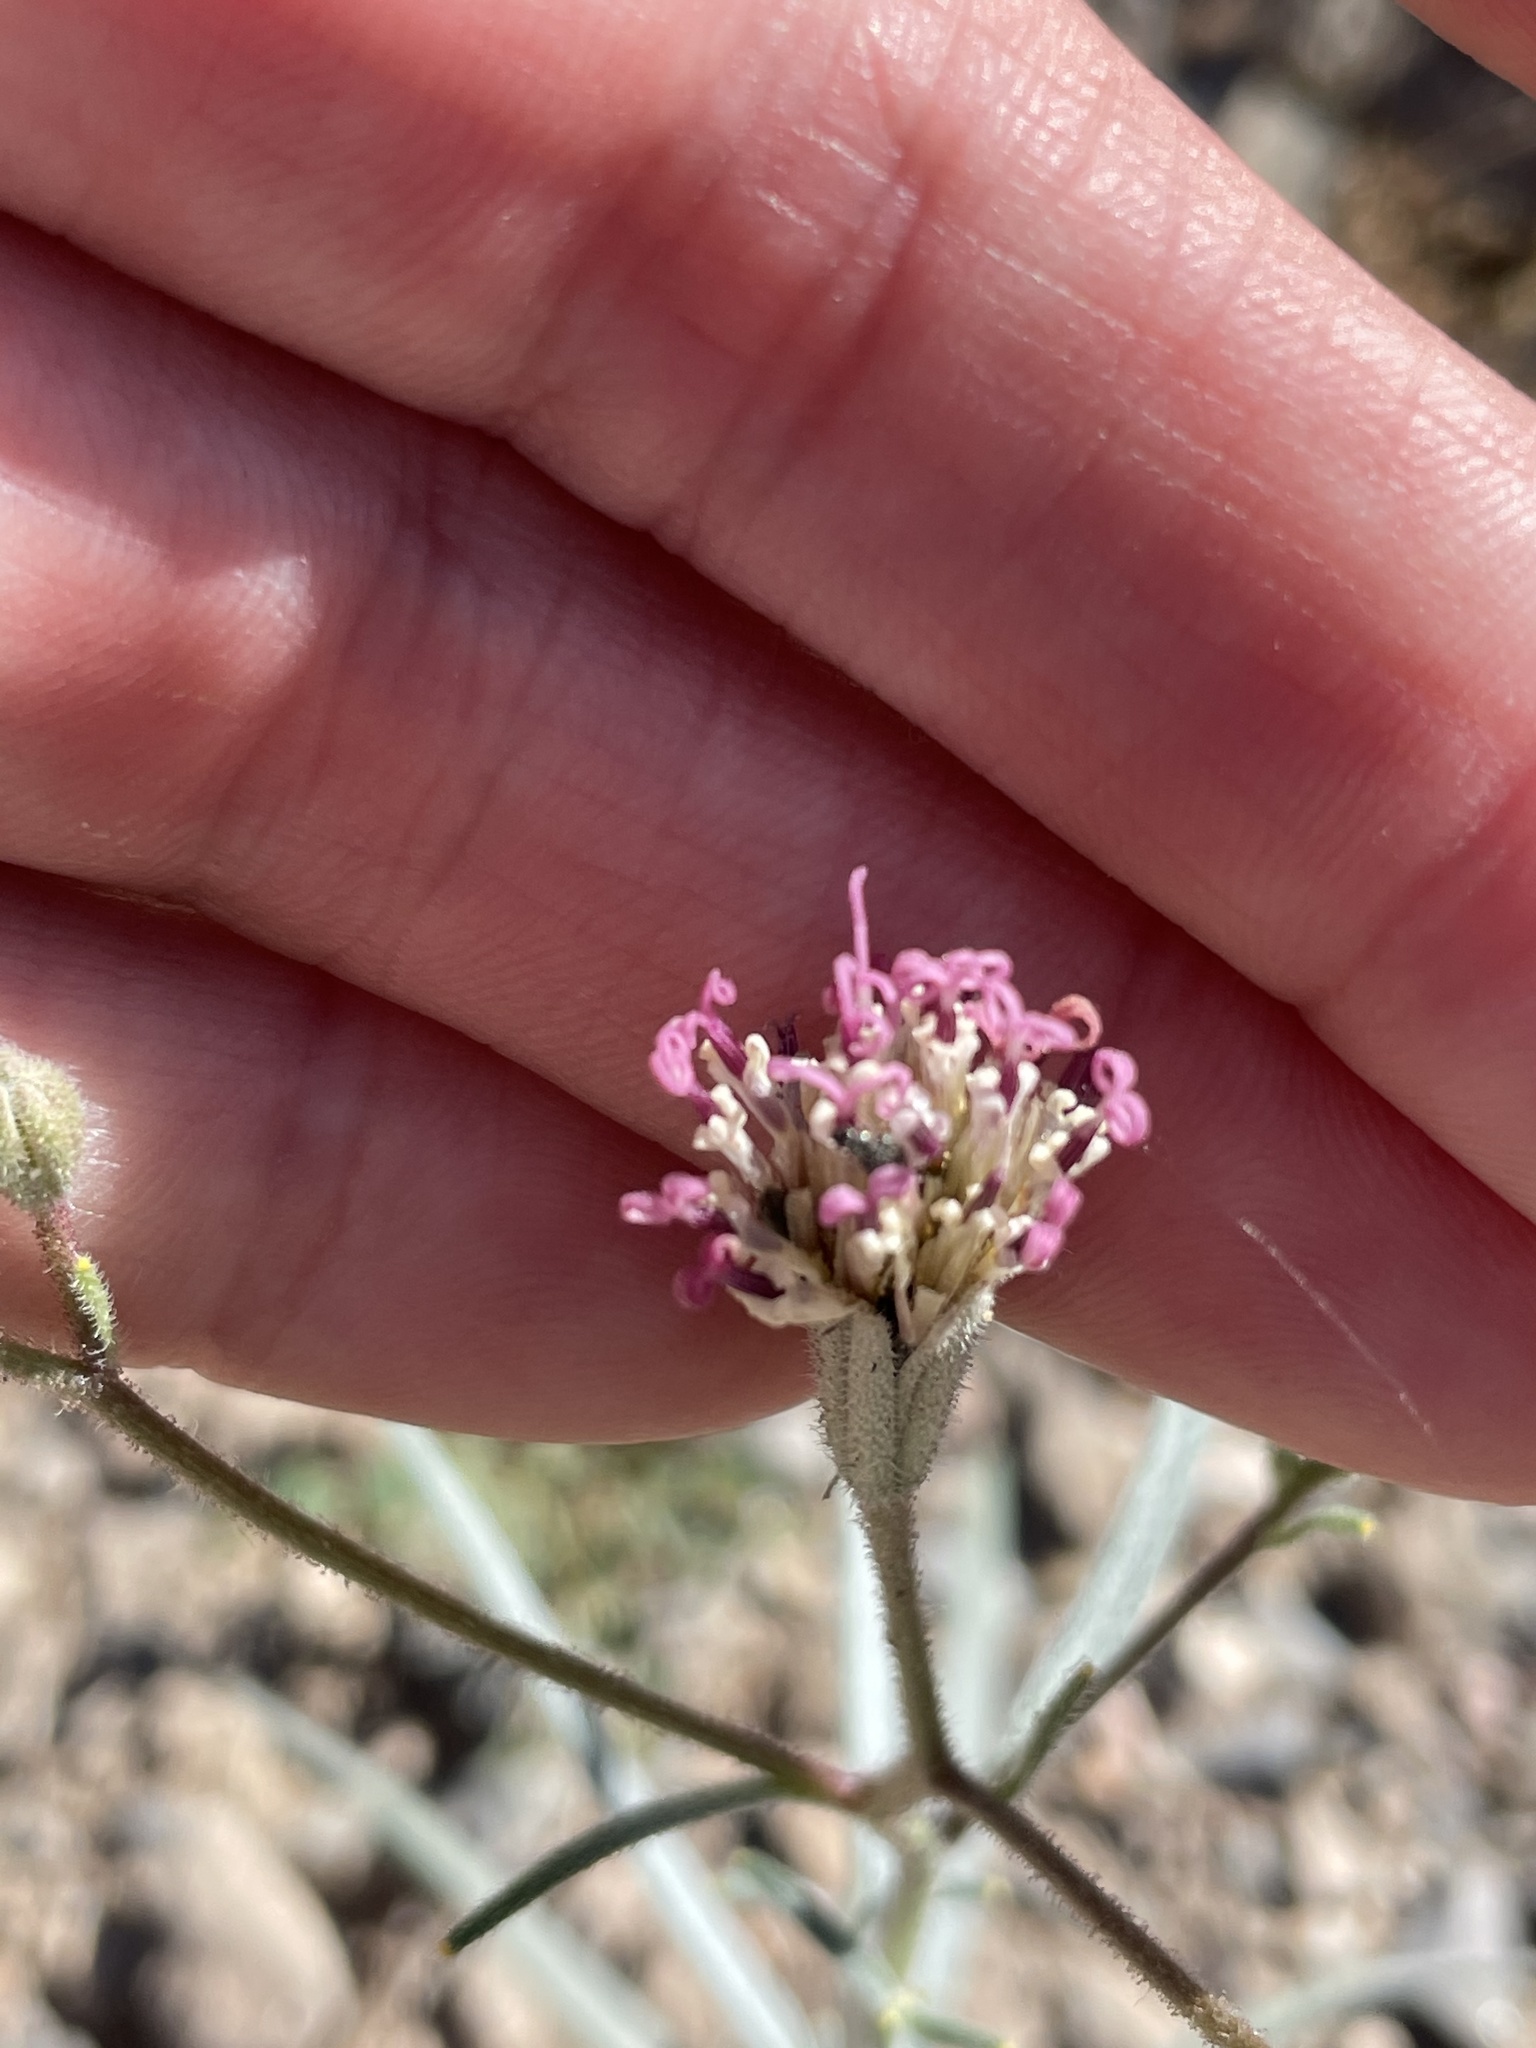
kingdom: Plantae
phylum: Tracheophyta
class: Magnoliopsida
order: Asterales
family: Asteraceae
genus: Palafoxia
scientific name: Palafoxia arida
